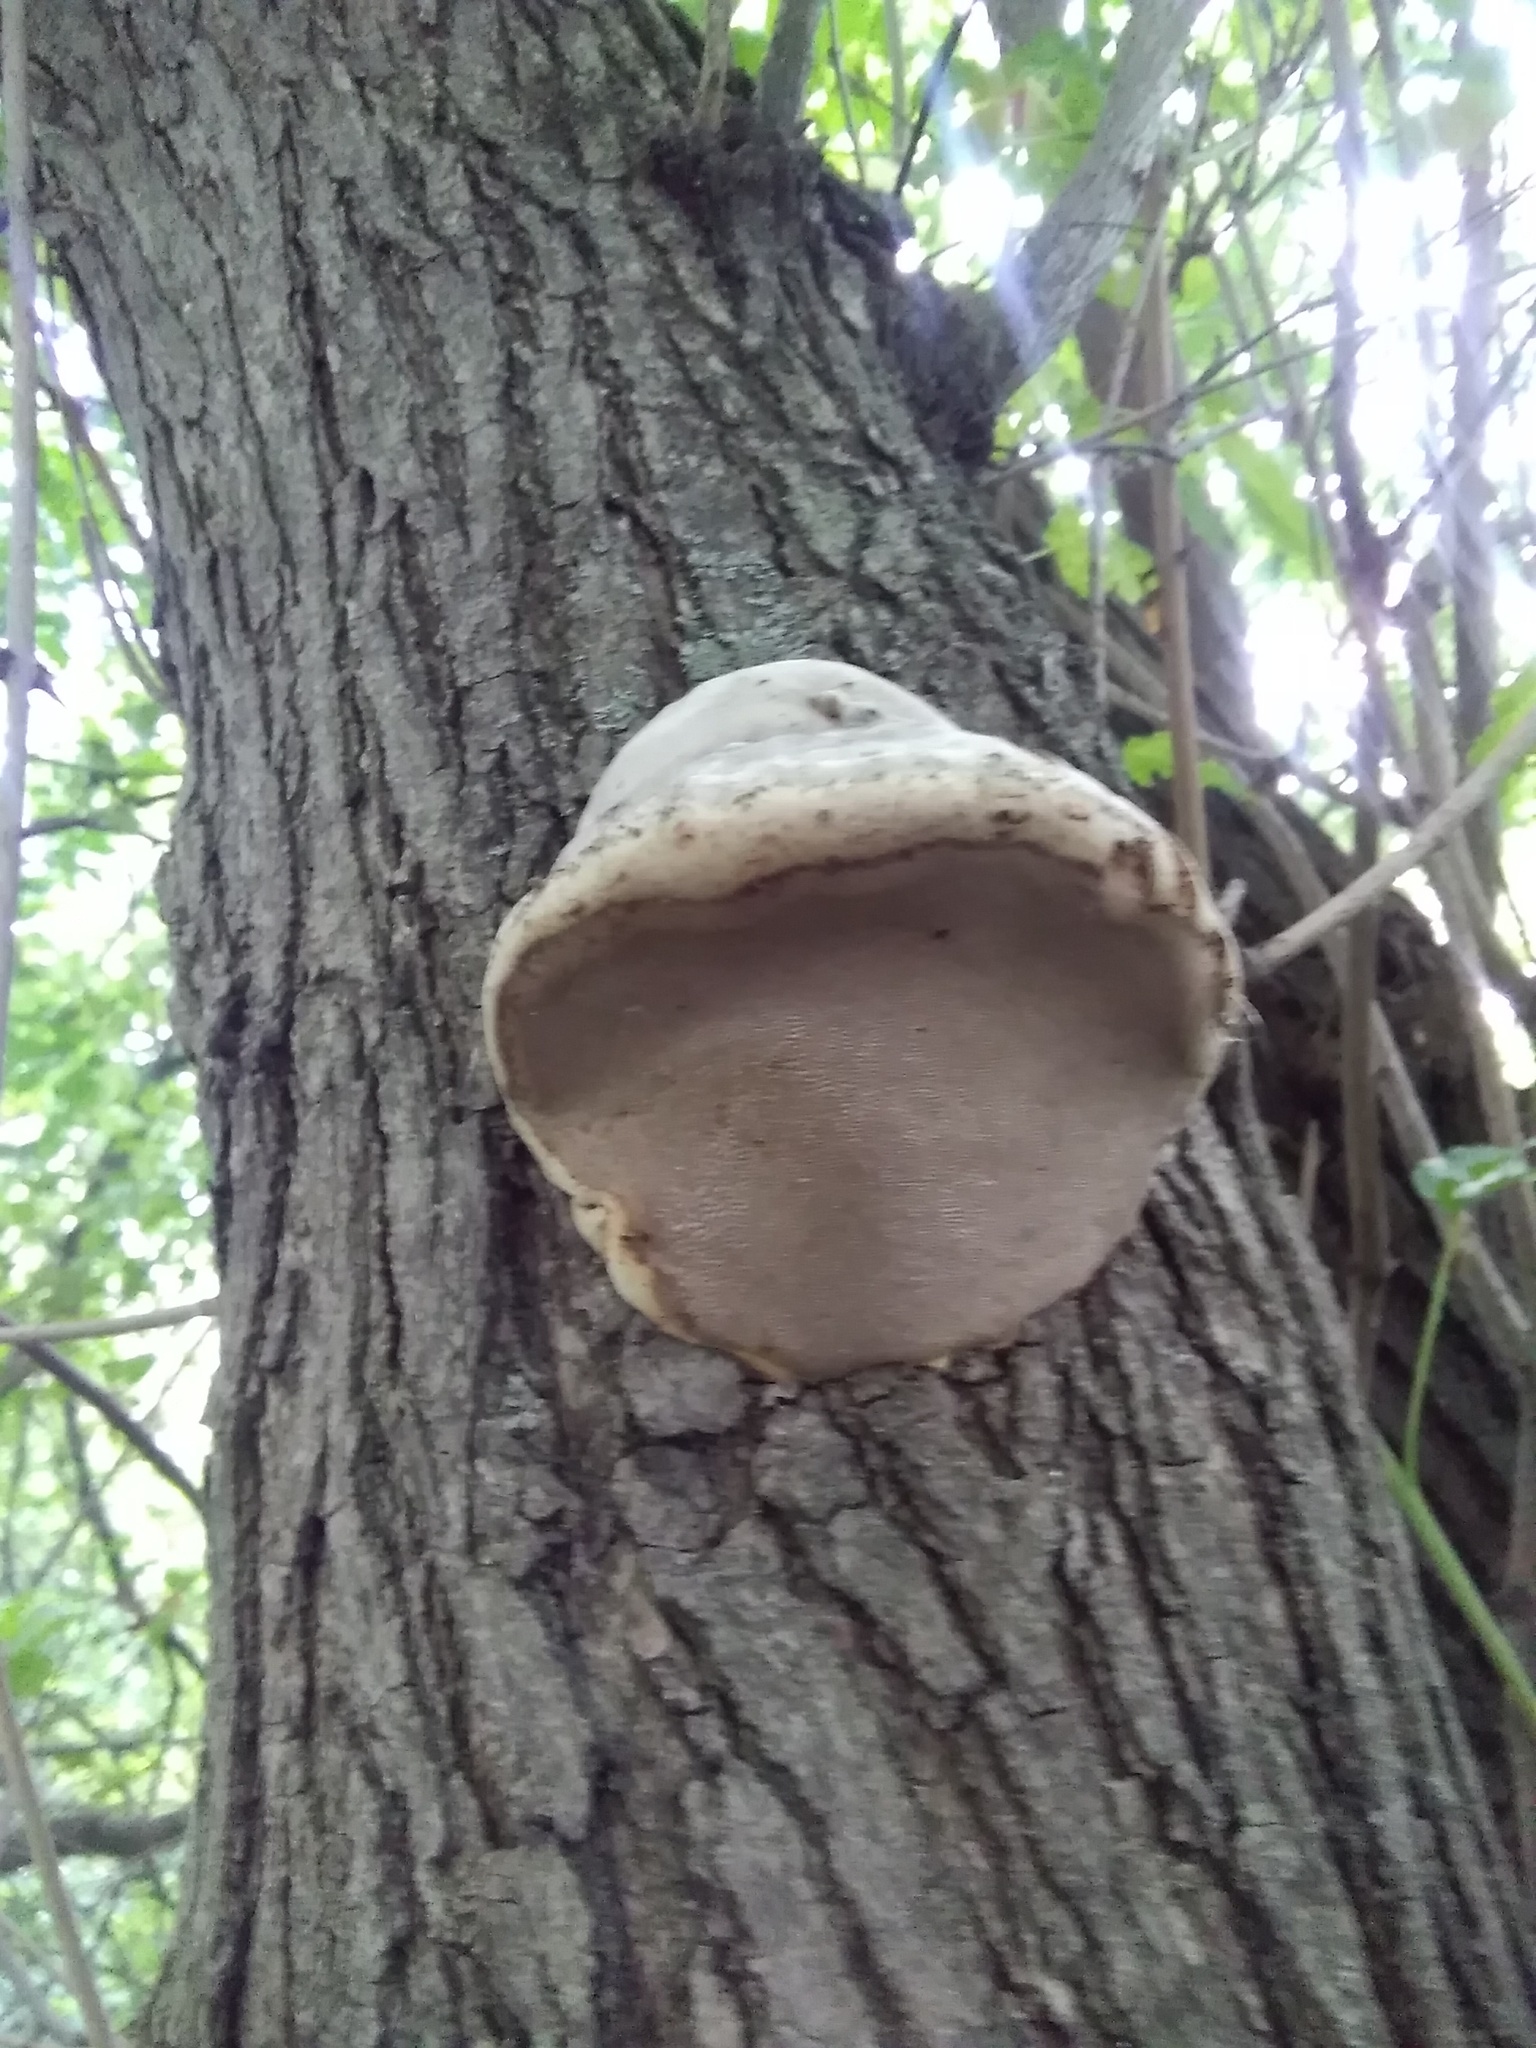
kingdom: Fungi
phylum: Basidiomycota
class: Agaricomycetes
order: Polyporales
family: Polyporaceae
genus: Fomes
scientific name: Fomes fomentarius
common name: Hoof fungus
